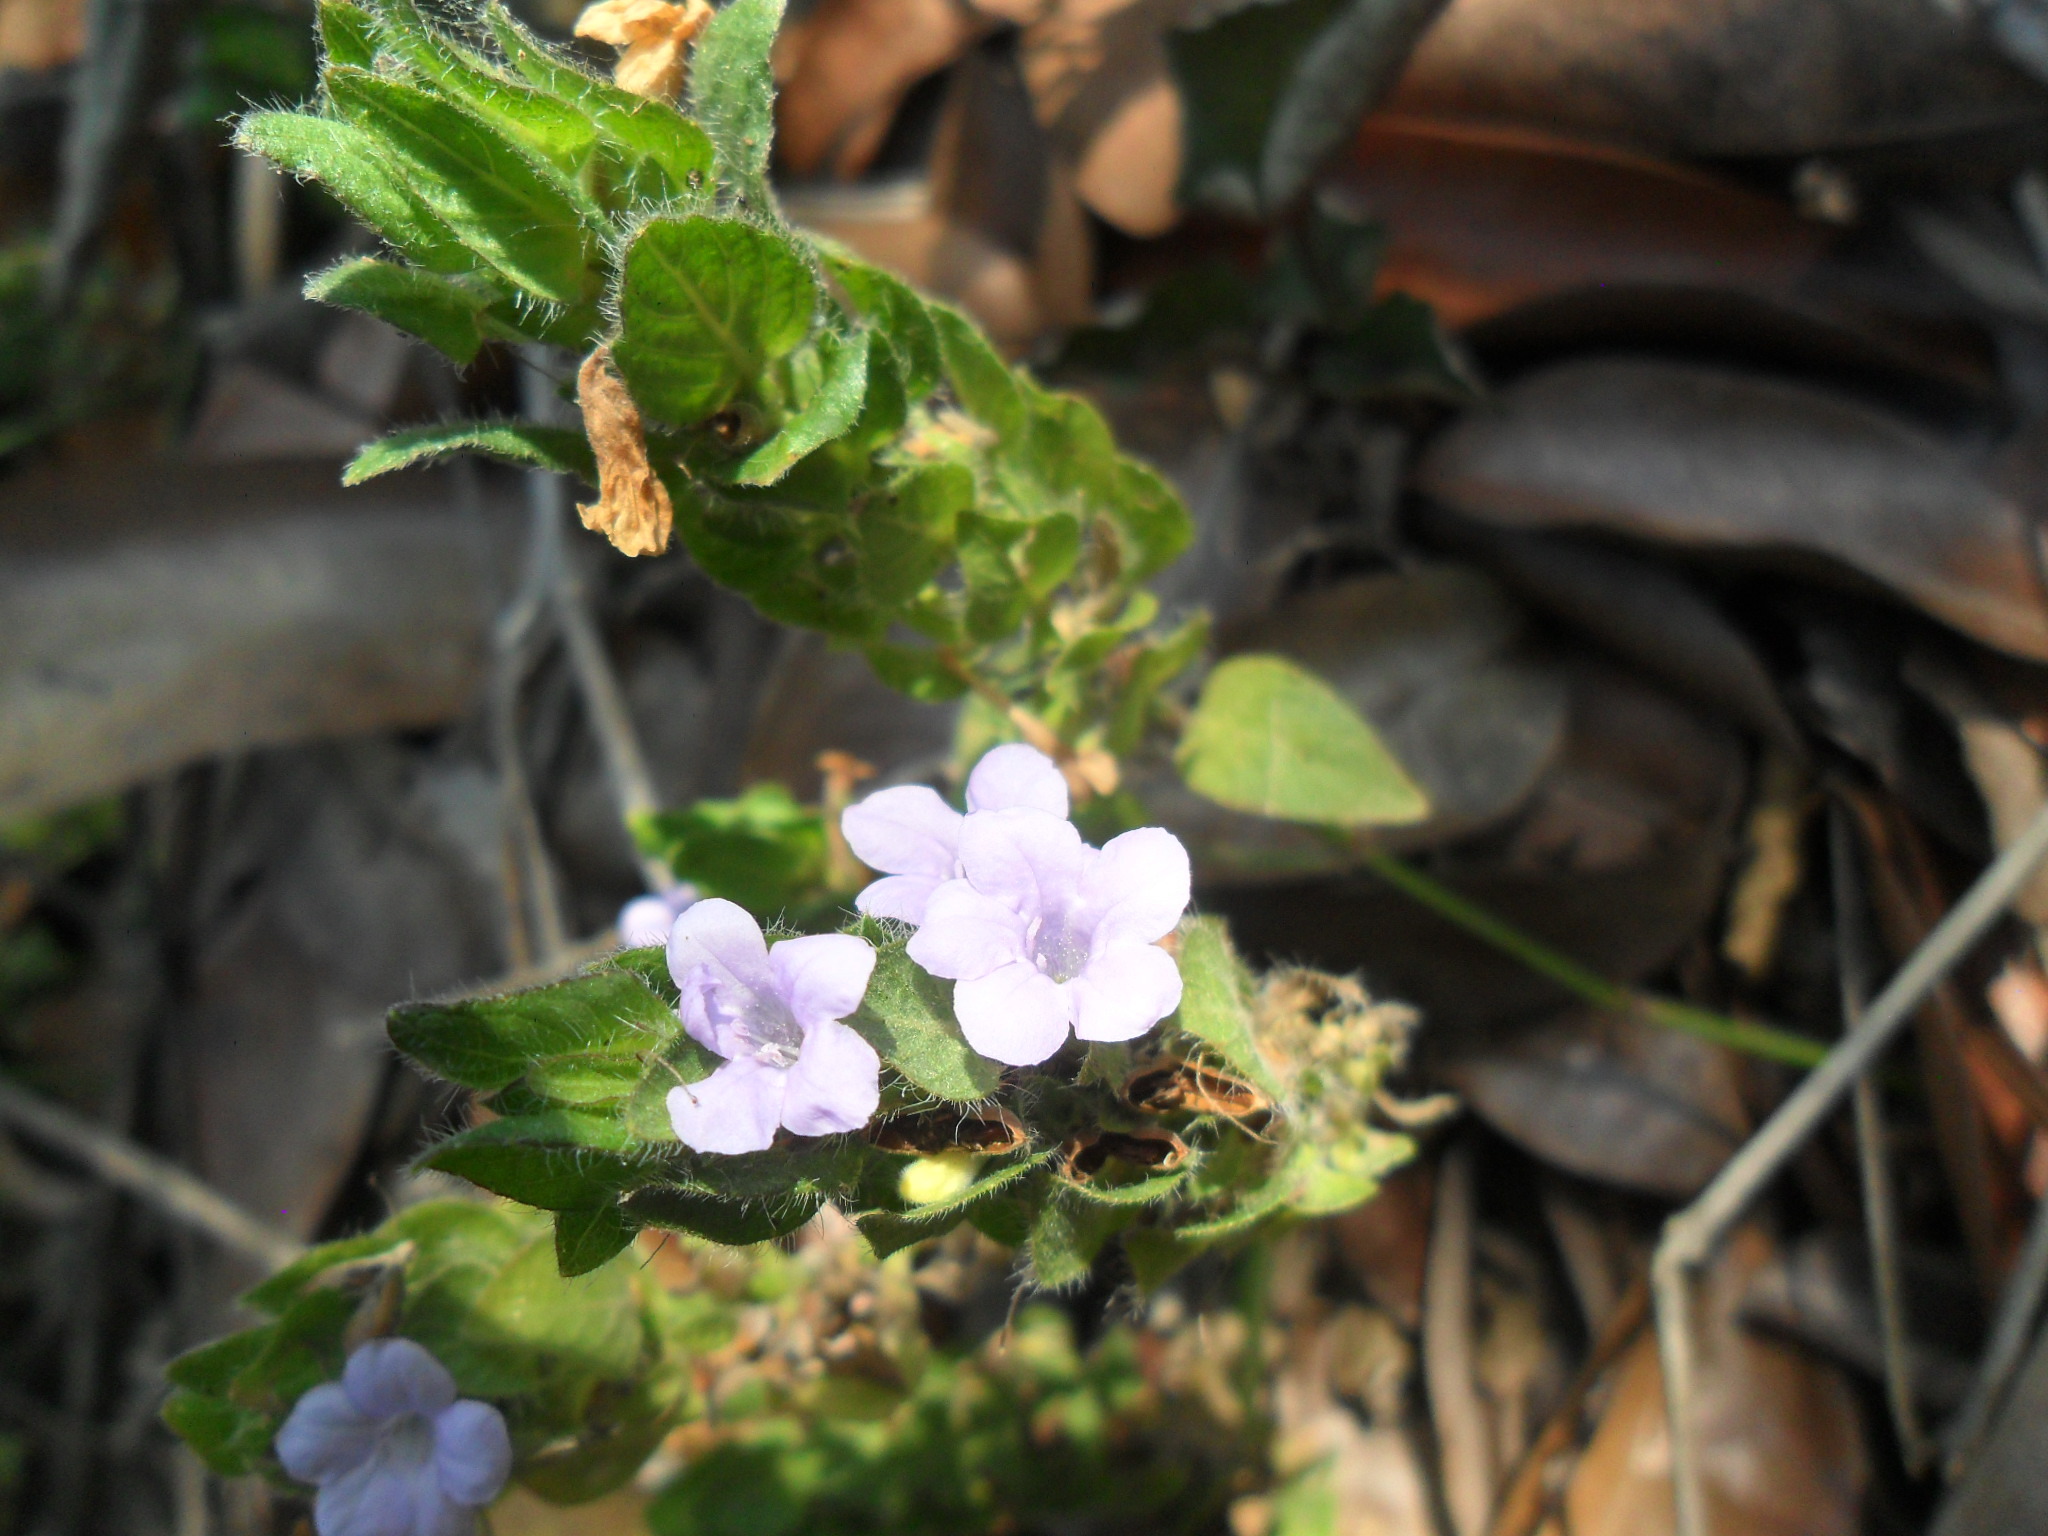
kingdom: Plantae
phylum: Tracheophyta
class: Magnoliopsida
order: Lamiales
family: Acanthaceae
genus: Ruellia
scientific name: Ruellia blechum
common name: Browne's blechum
